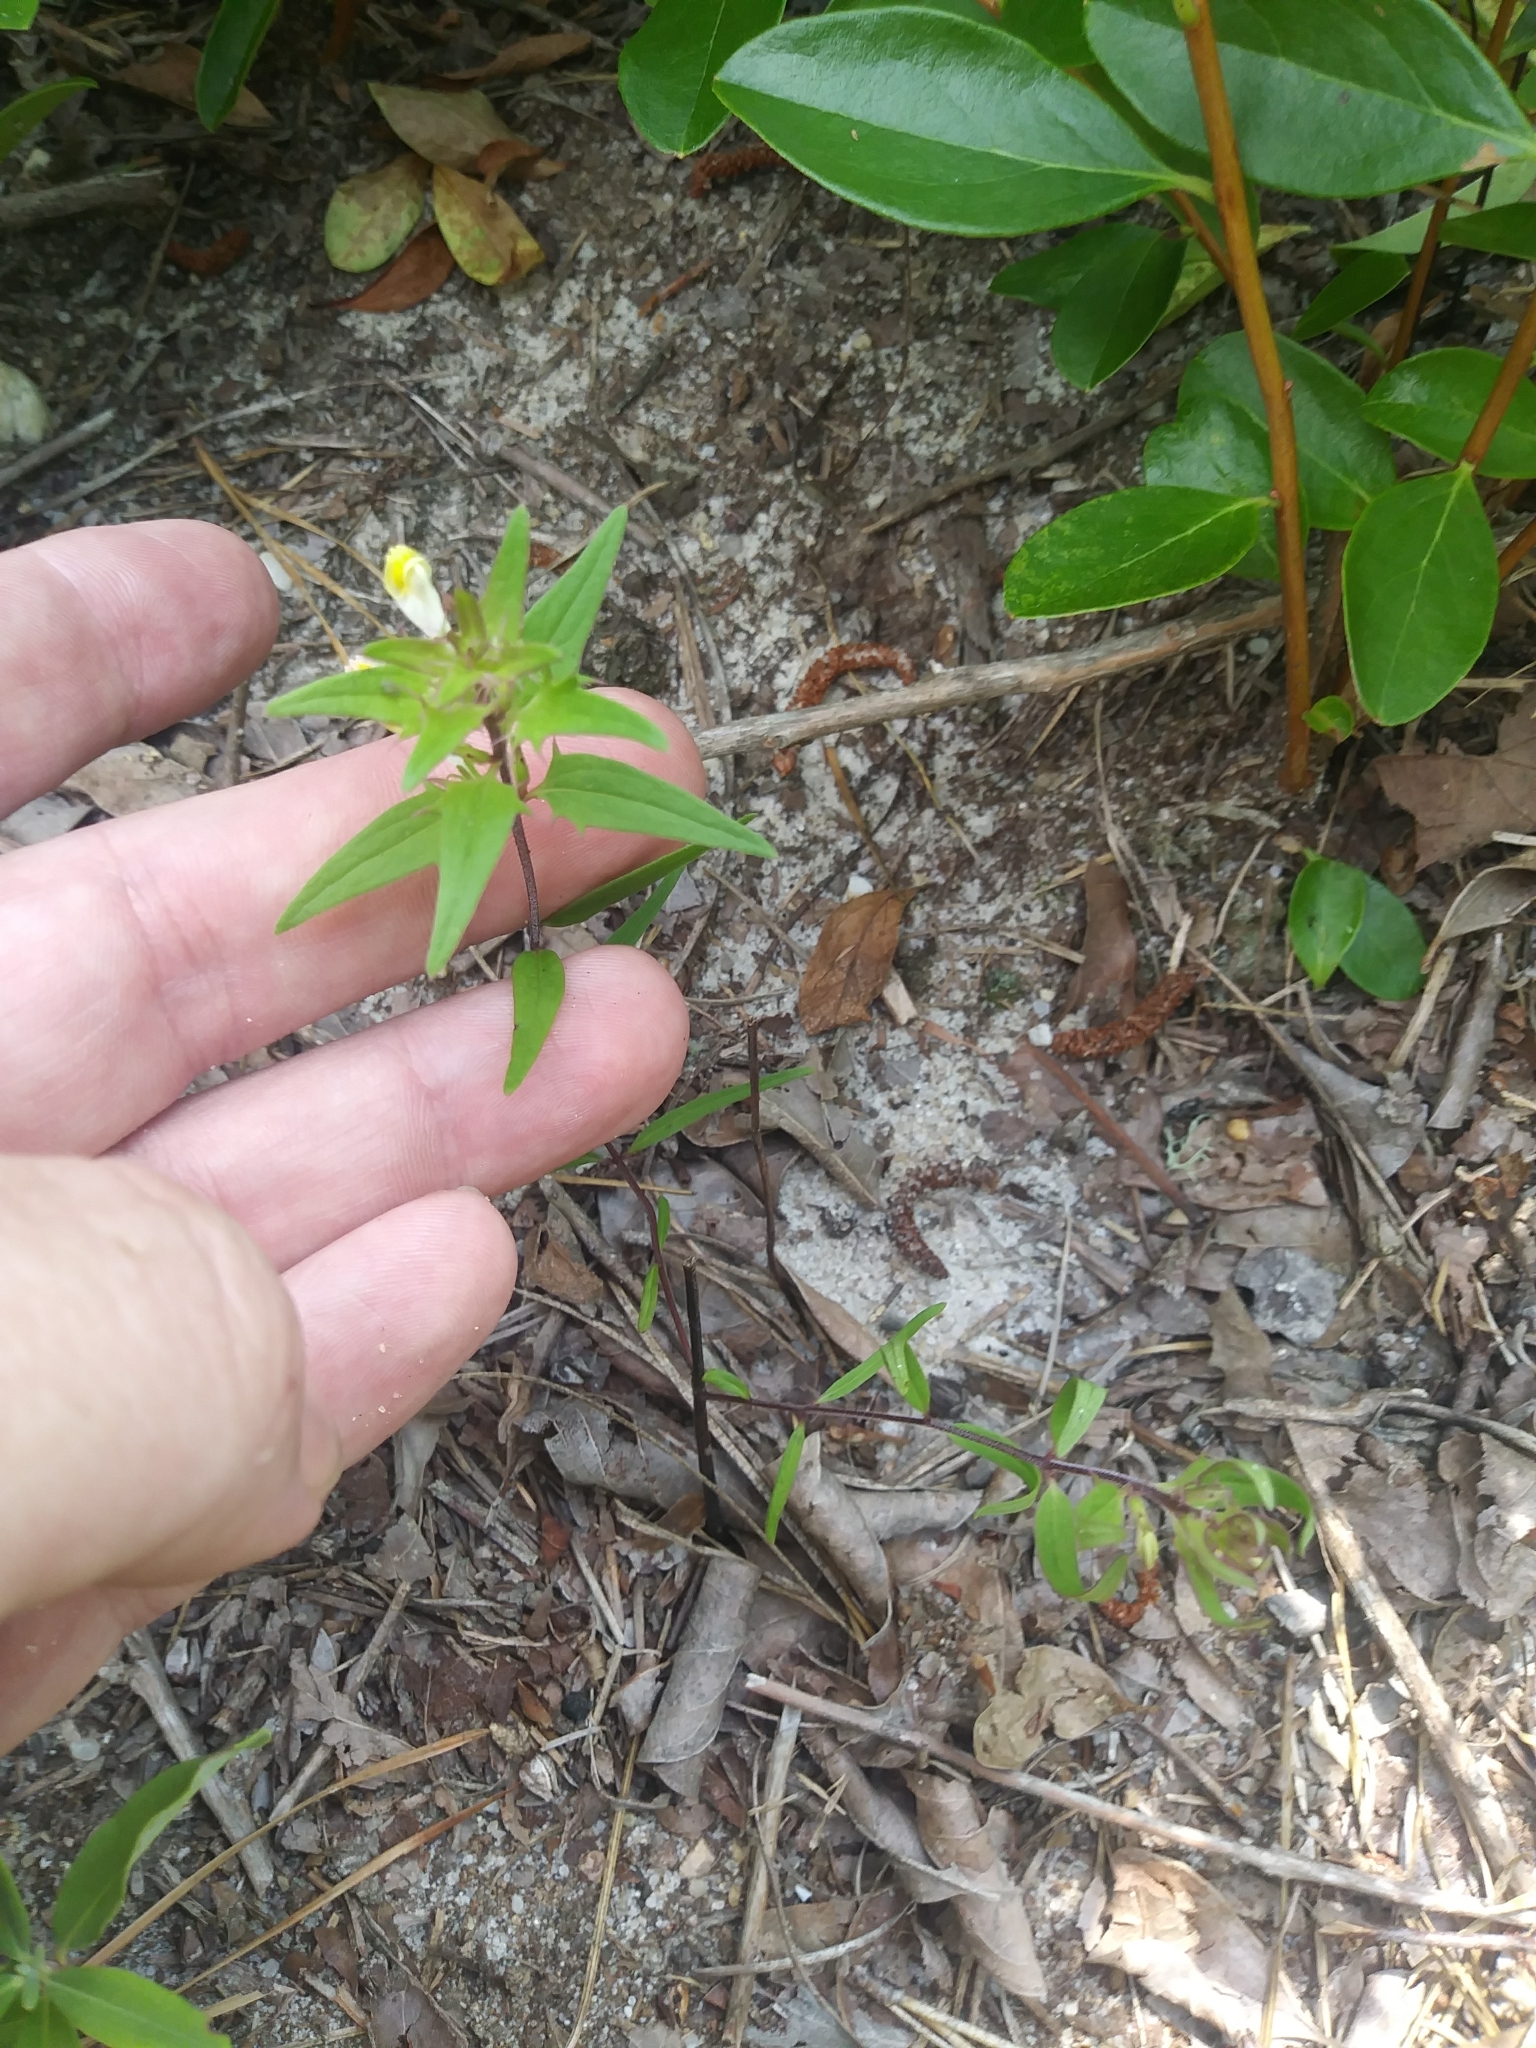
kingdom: Plantae
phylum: Tracheophyta
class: Magnoliopsida
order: Lamiales
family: Orobanchaceae
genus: Melampyrum
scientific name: Melampyrum lineare
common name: American cow-wheat
